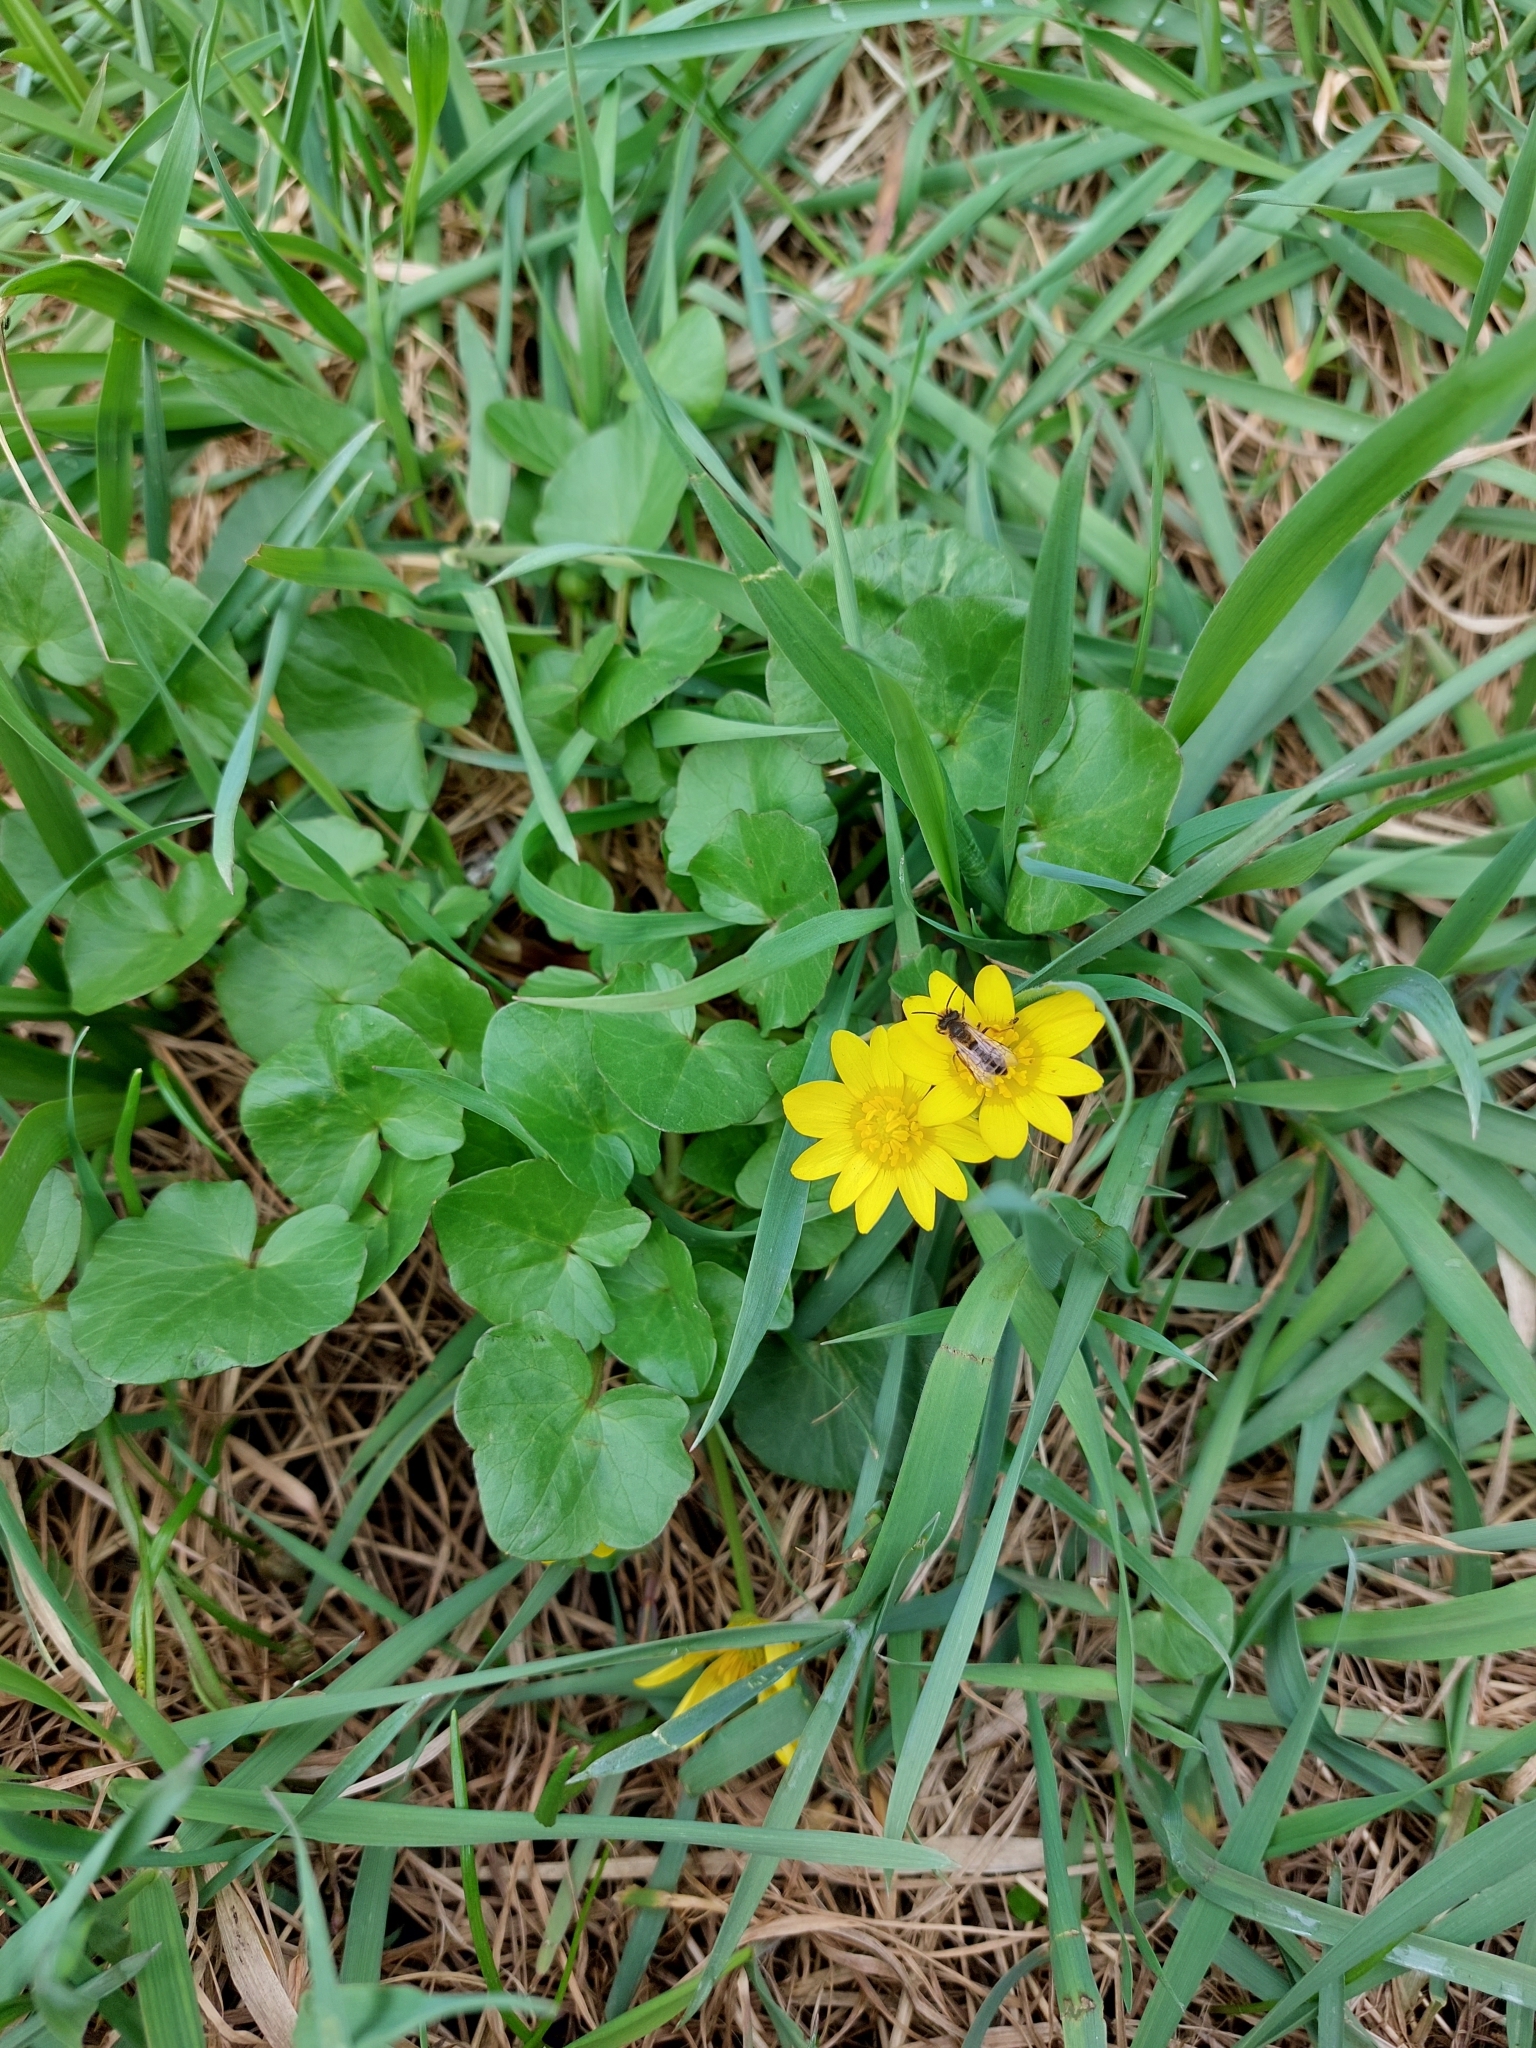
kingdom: Plantae
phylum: Tracheophyta
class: Magnoliopsida
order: Ranunculales
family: Ranunculaceae
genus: Ficaria
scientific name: Ficaria verna
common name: Lesser celandine
